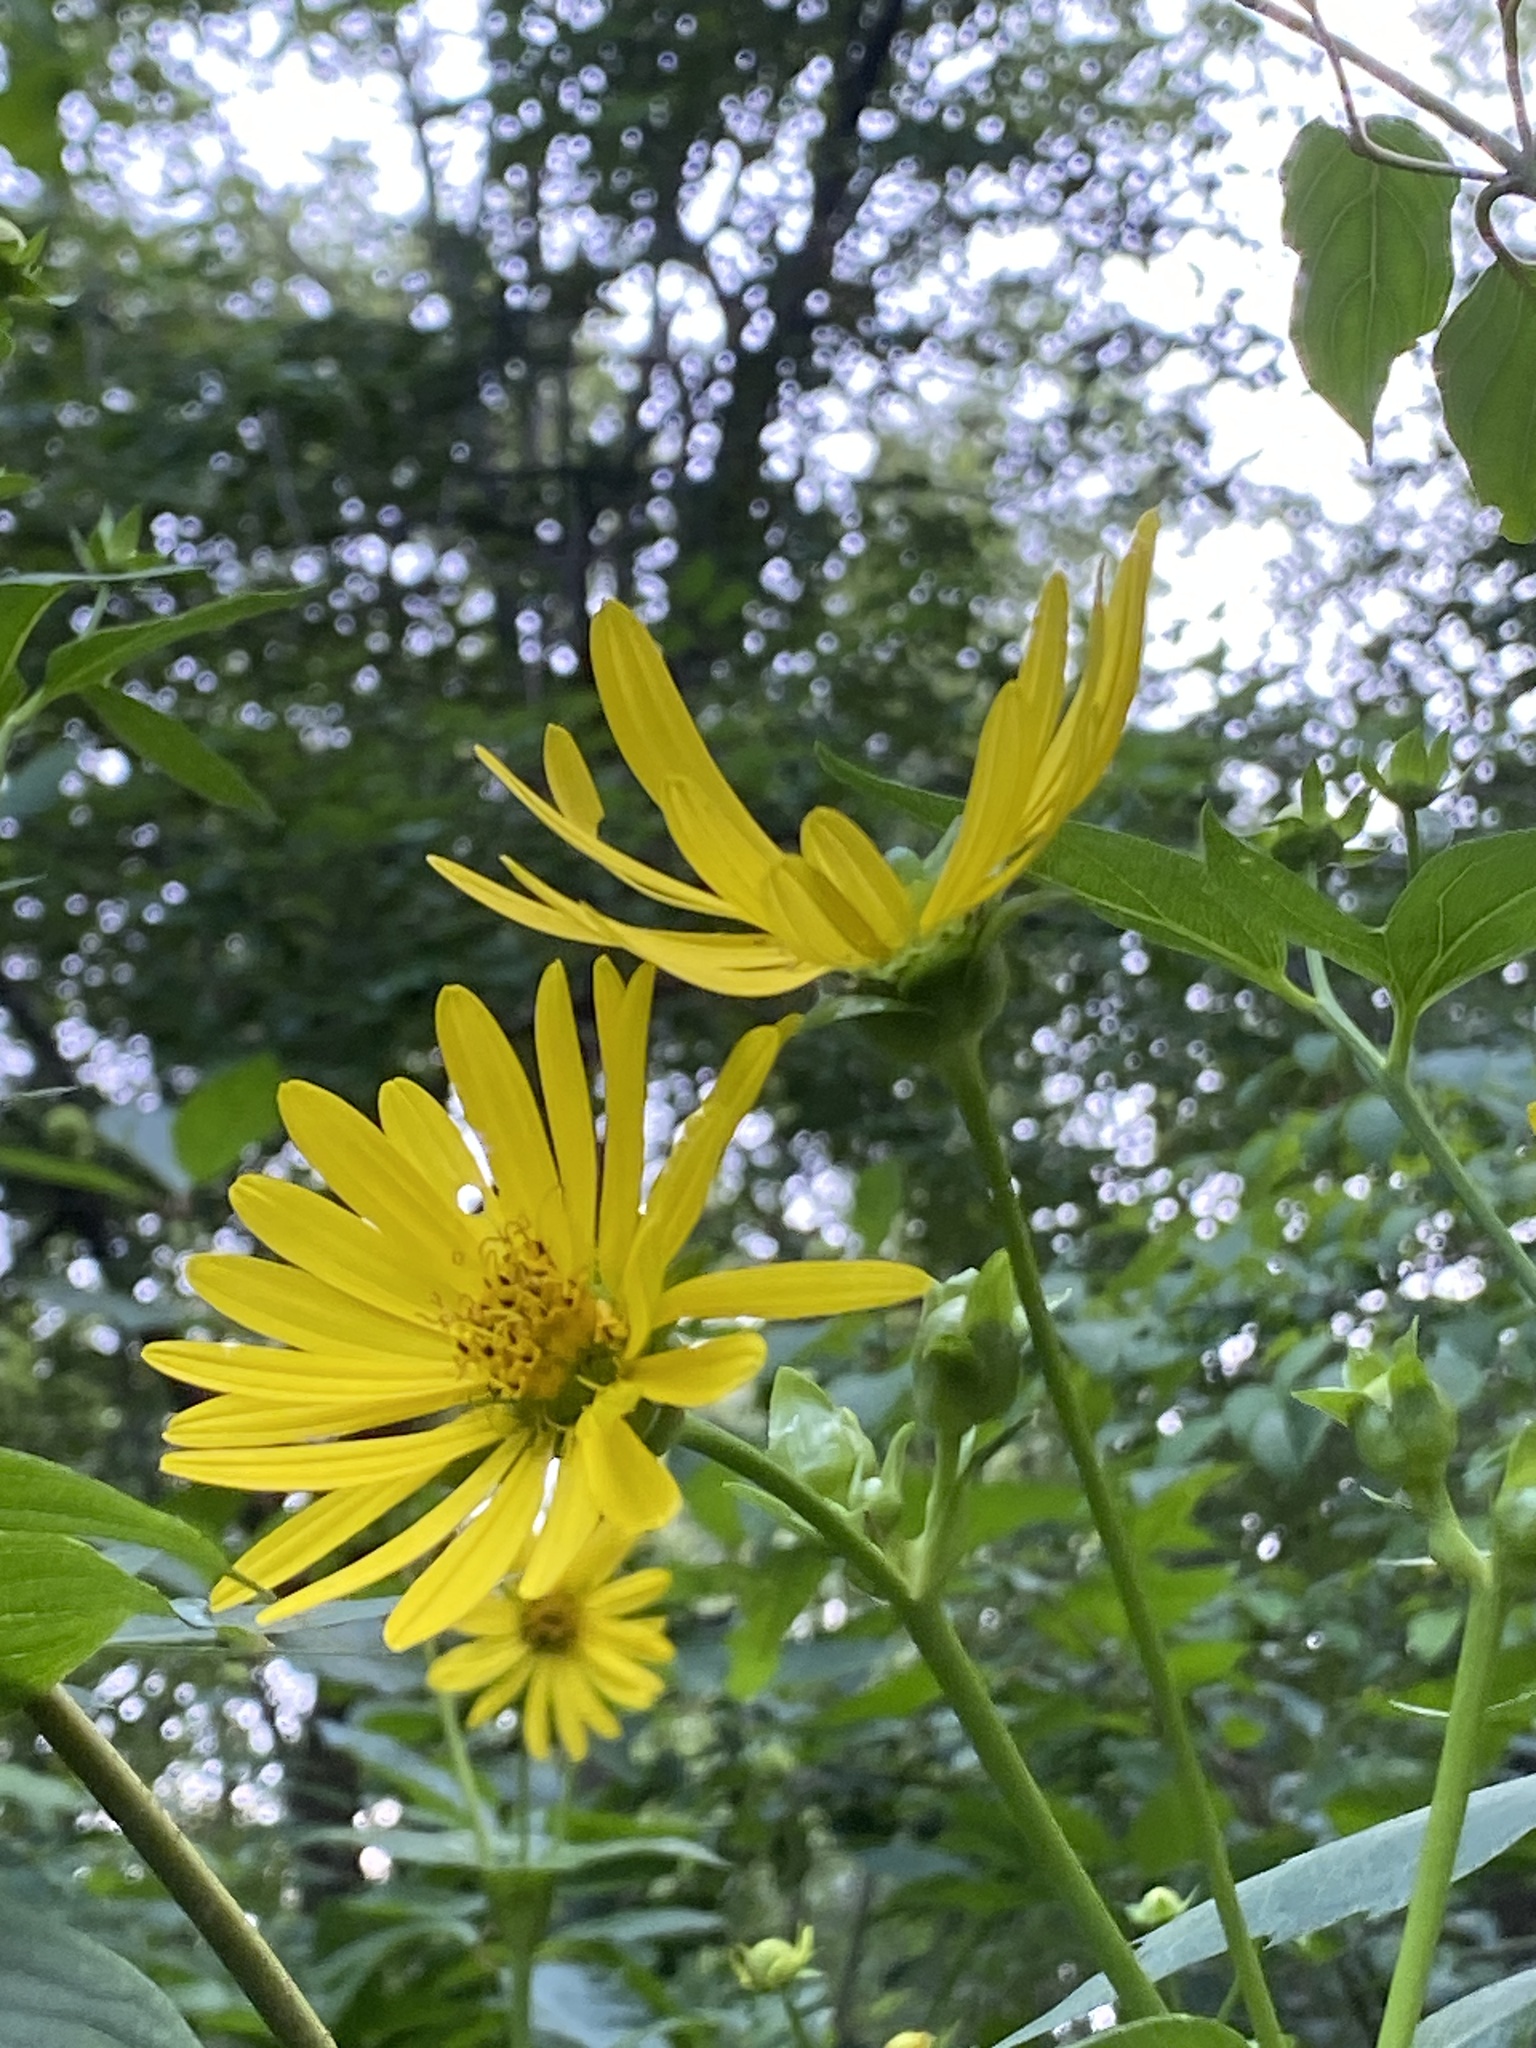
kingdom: Plantae
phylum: Tracheophyta
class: Magnoliopsida
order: Asterales
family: Asteraceae
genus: Silphium
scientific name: Silphium perfoliatum
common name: Cup-plant
